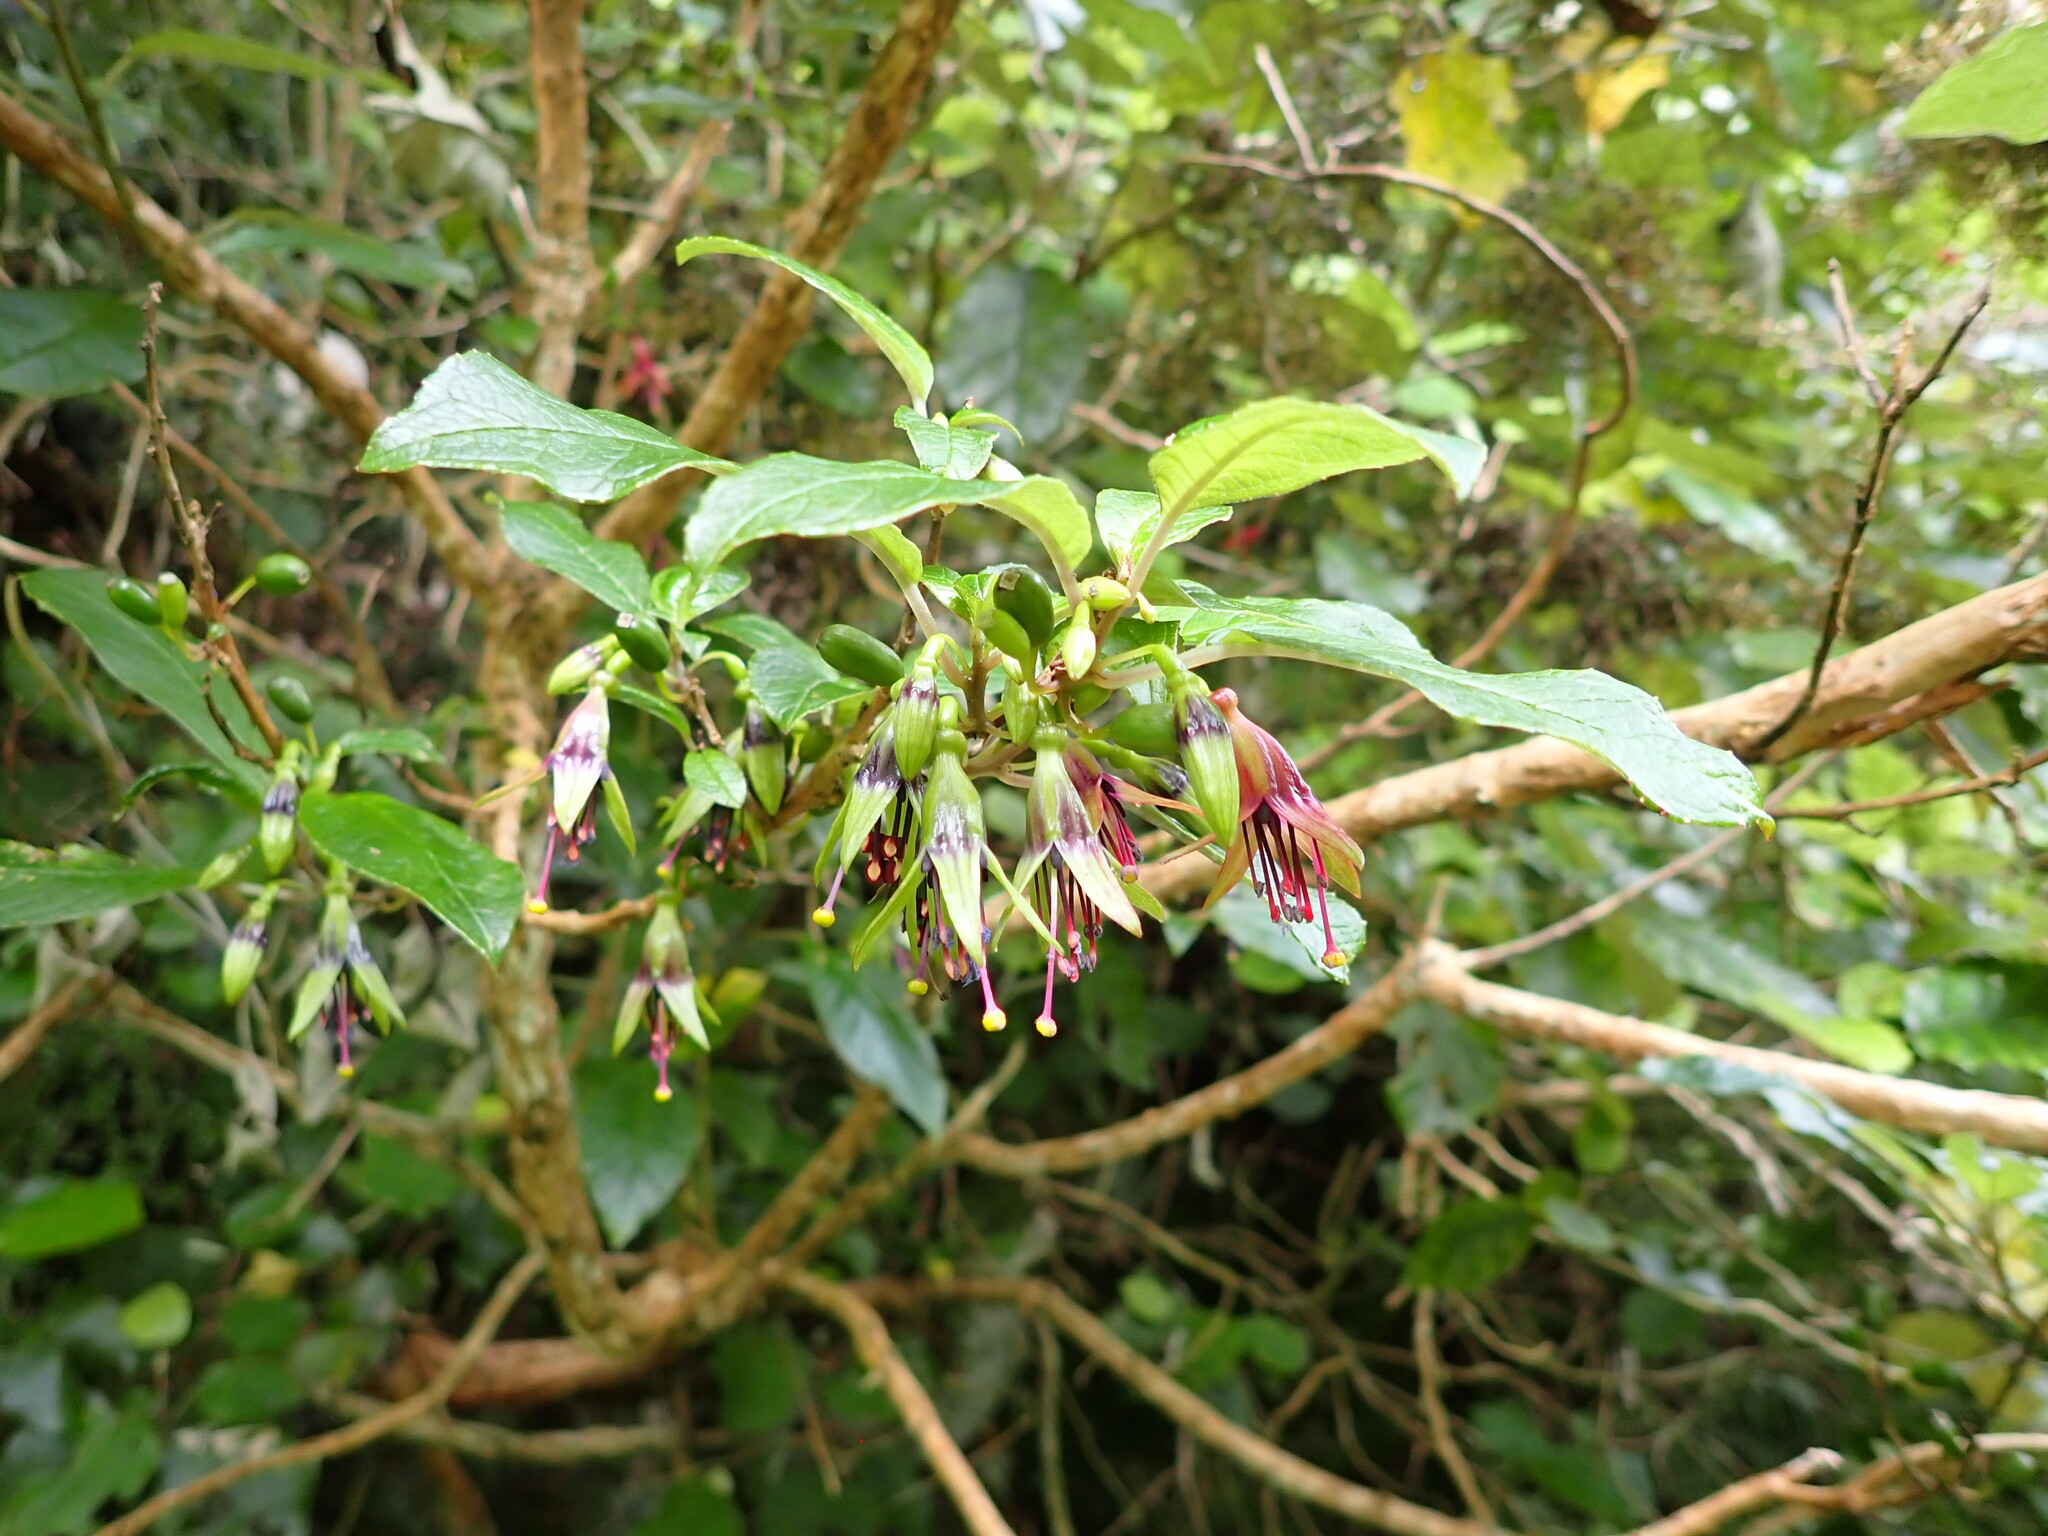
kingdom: Plantae
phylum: Tracheophyta
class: Magnoliopsida
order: Myrtales
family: Onagraceae
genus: Fuchsia
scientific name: Fuchsia excorticata
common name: Tree fuchsia
